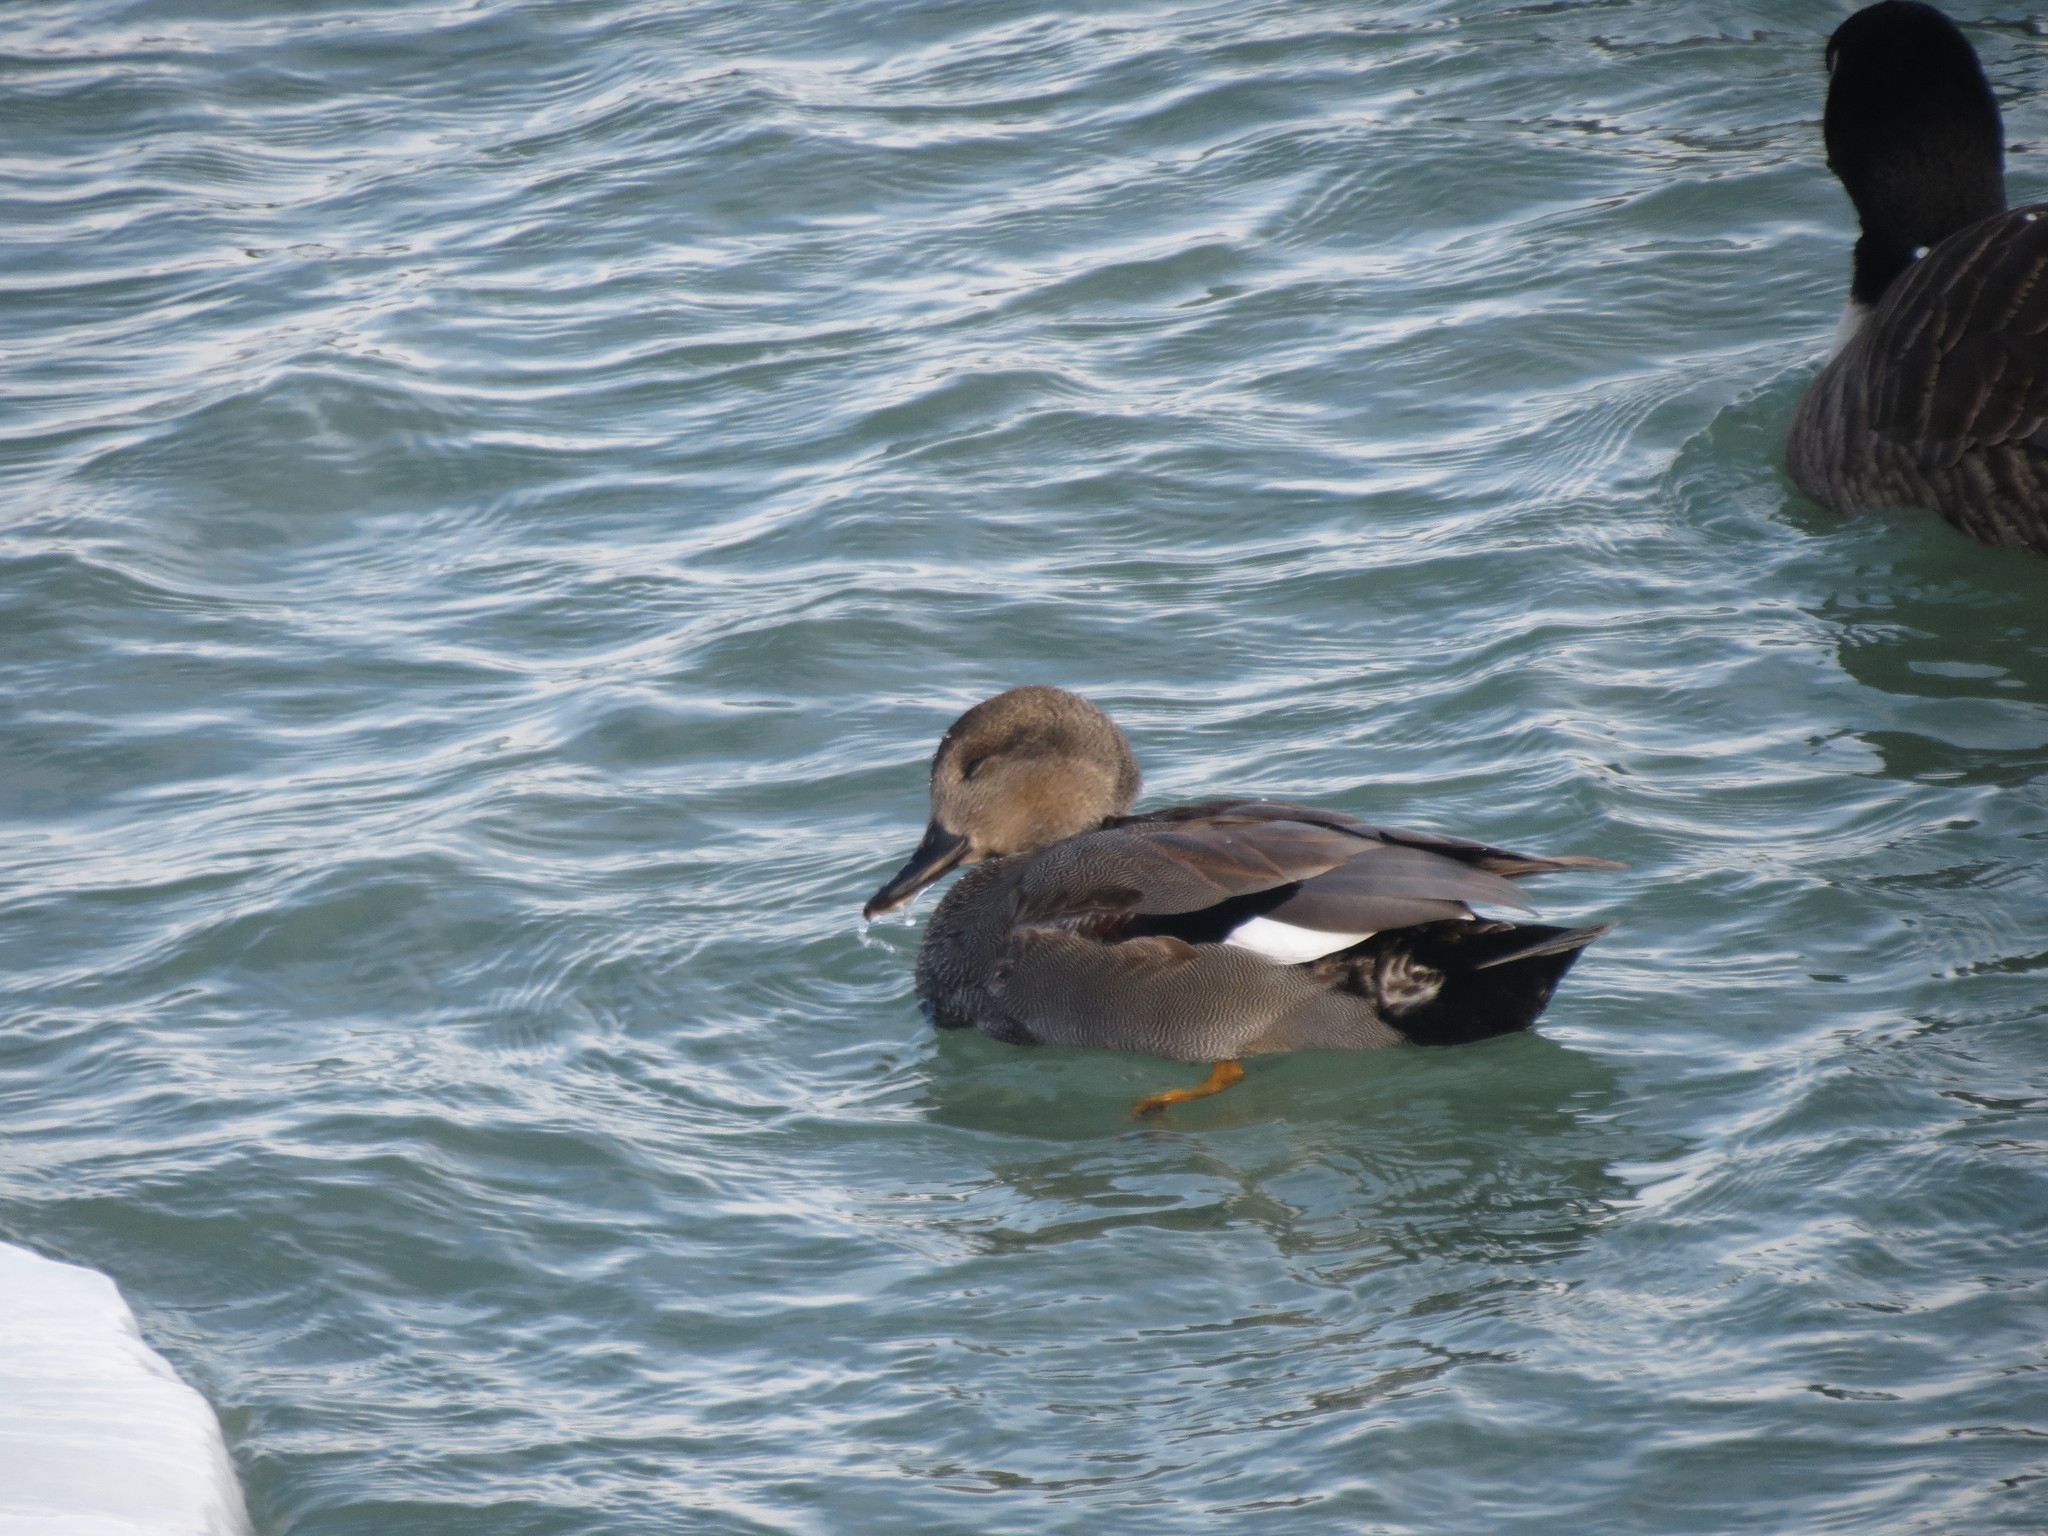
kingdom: Animalia
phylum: Chordata
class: Aves
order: Anseriformes
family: Anatidae
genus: Mareca
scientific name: Mareca strepera
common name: Gadwall
